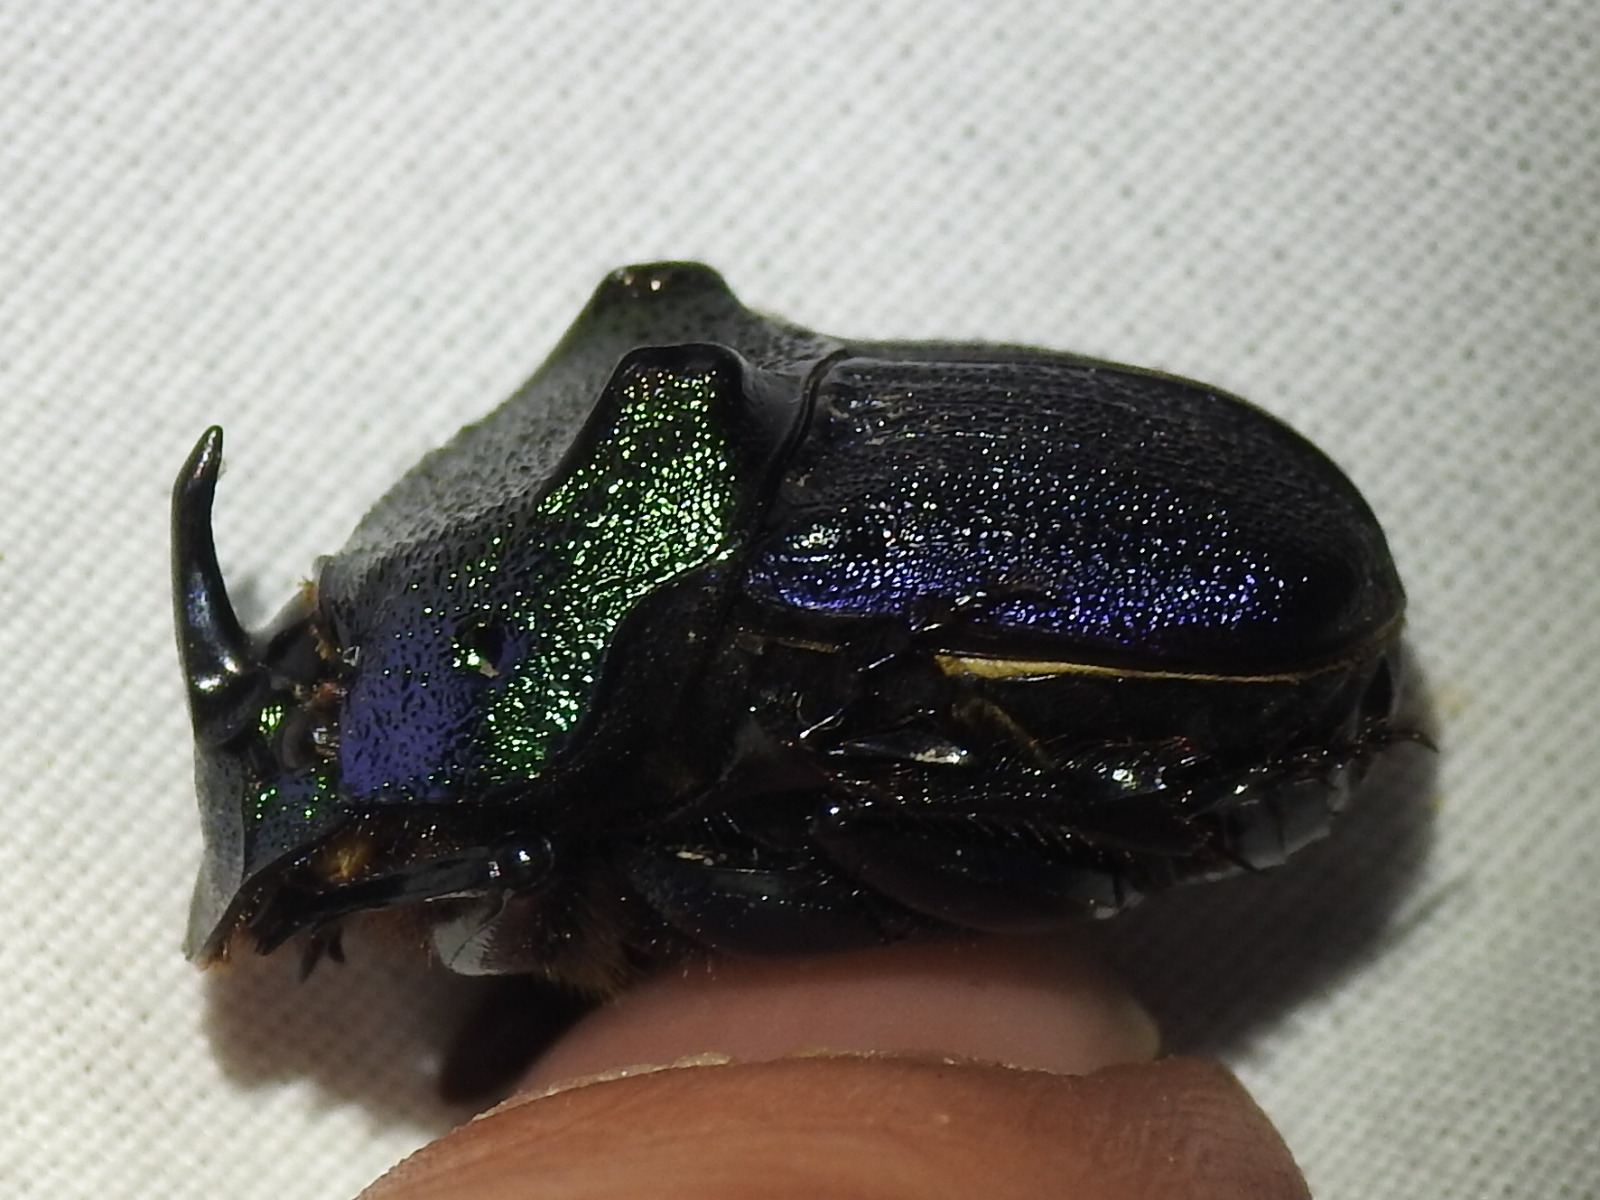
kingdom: Animalia
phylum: Arthropoda
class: Insecta
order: Coleoptera
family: Scarabaeidae
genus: Phanaeus
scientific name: Phanaeus difformis
